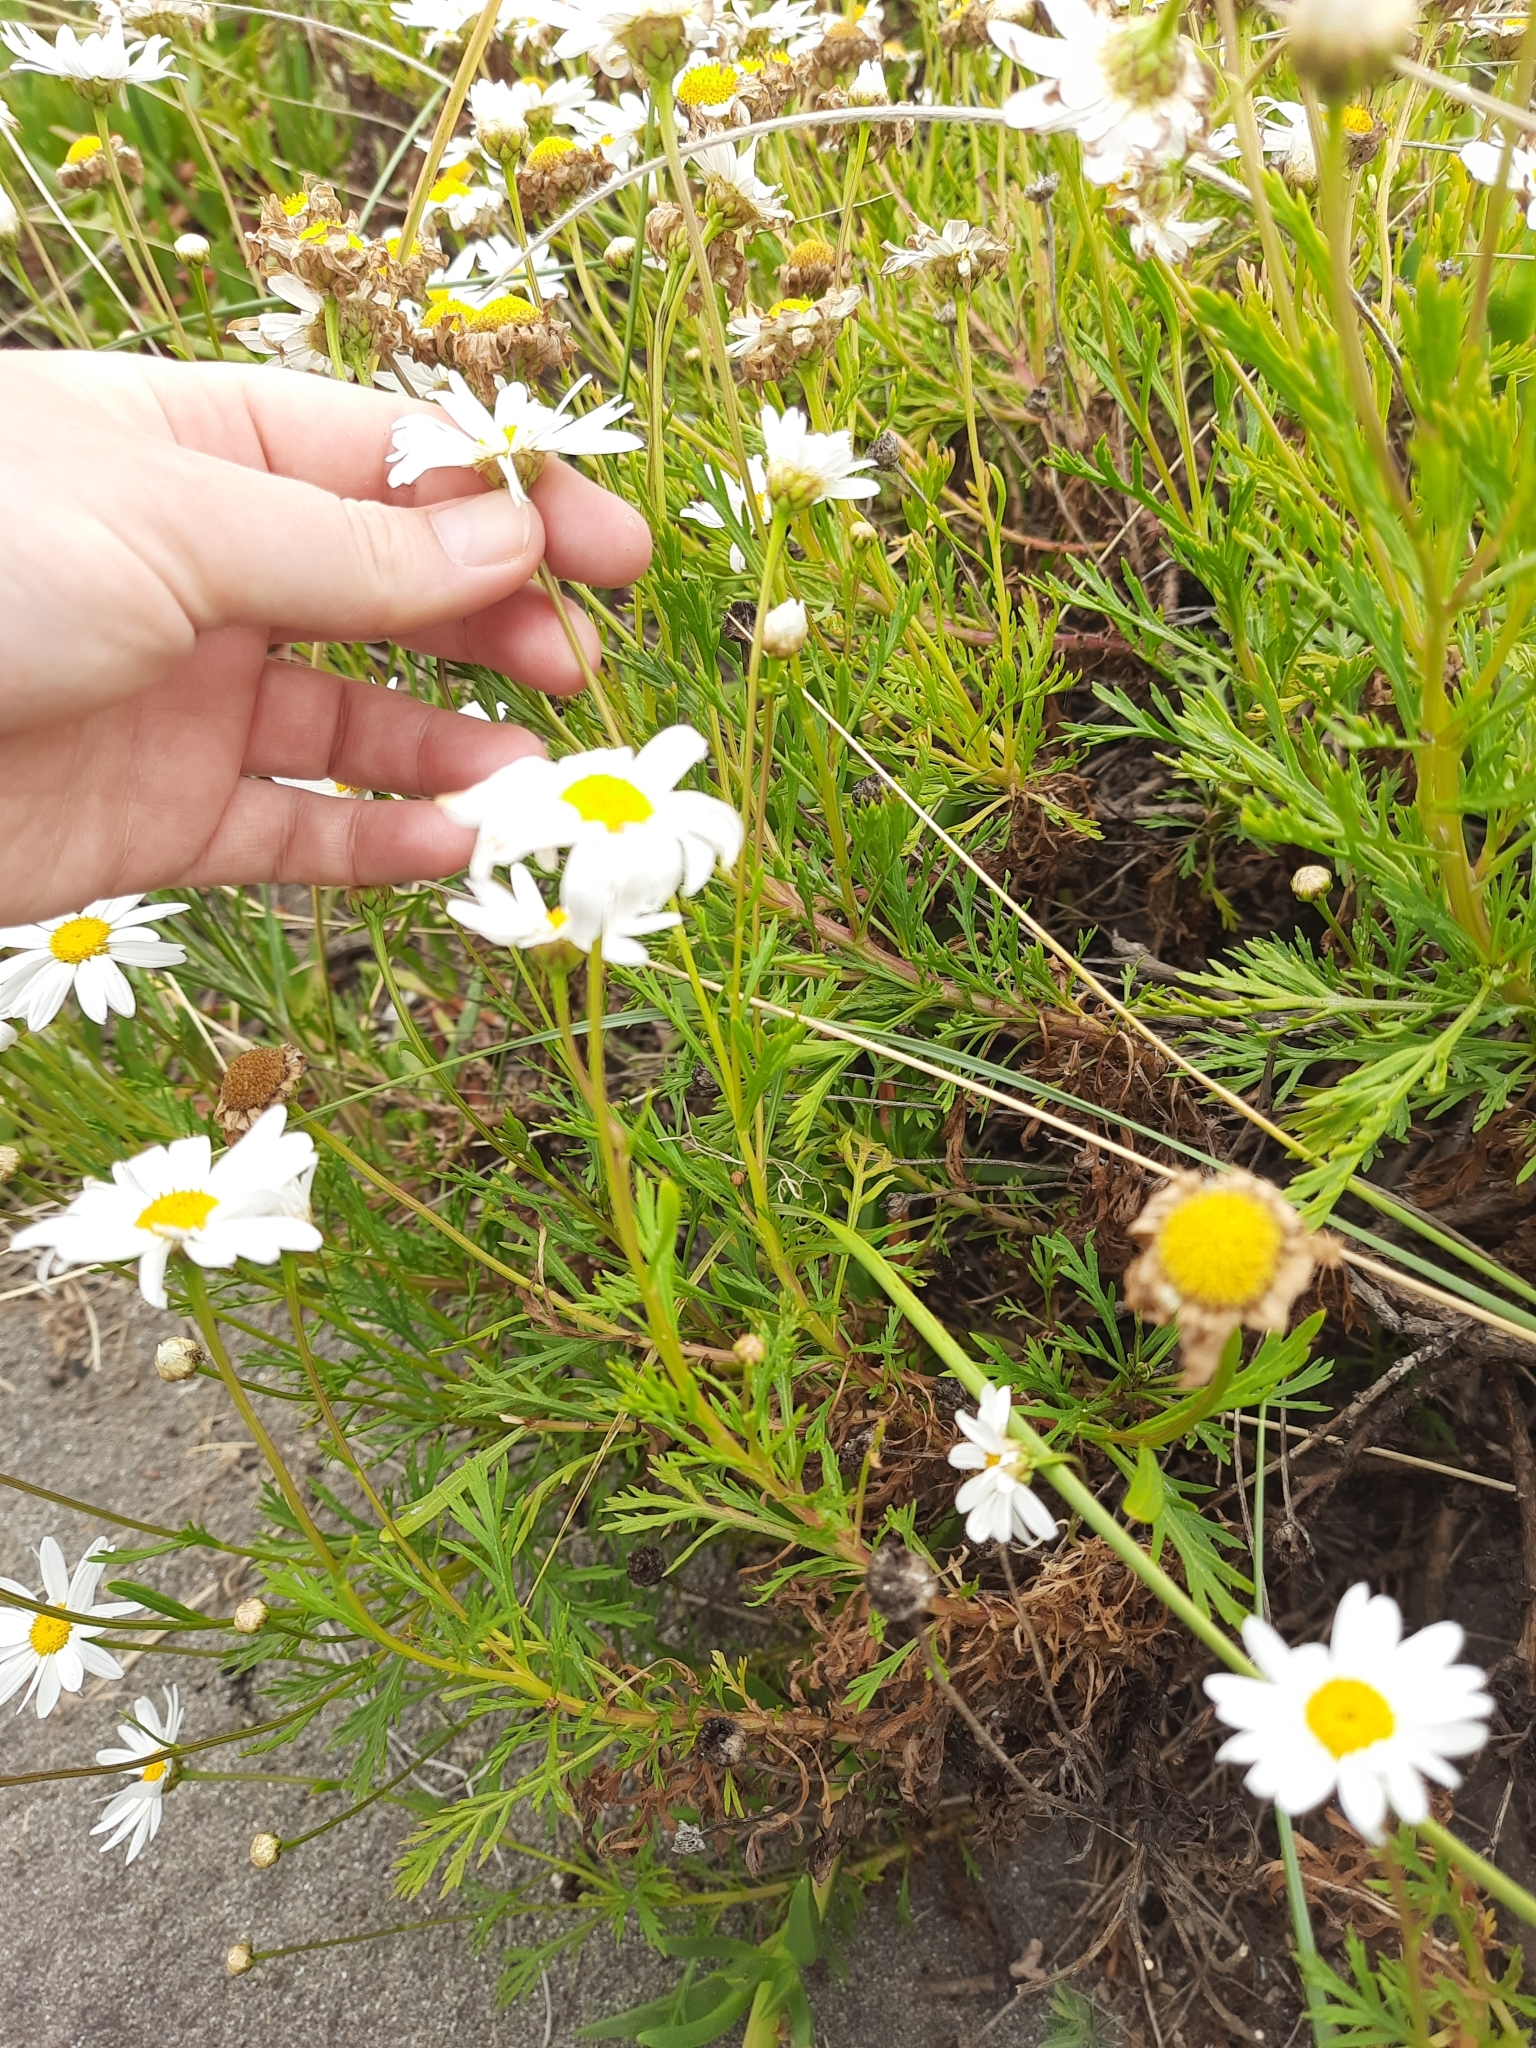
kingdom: Plantae
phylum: Tracheophyta
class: Magnoliopsida
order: Asterales
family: Asteraceae
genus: Argyranthemum
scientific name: Argyranthemum frutescens
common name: Paris daisy
